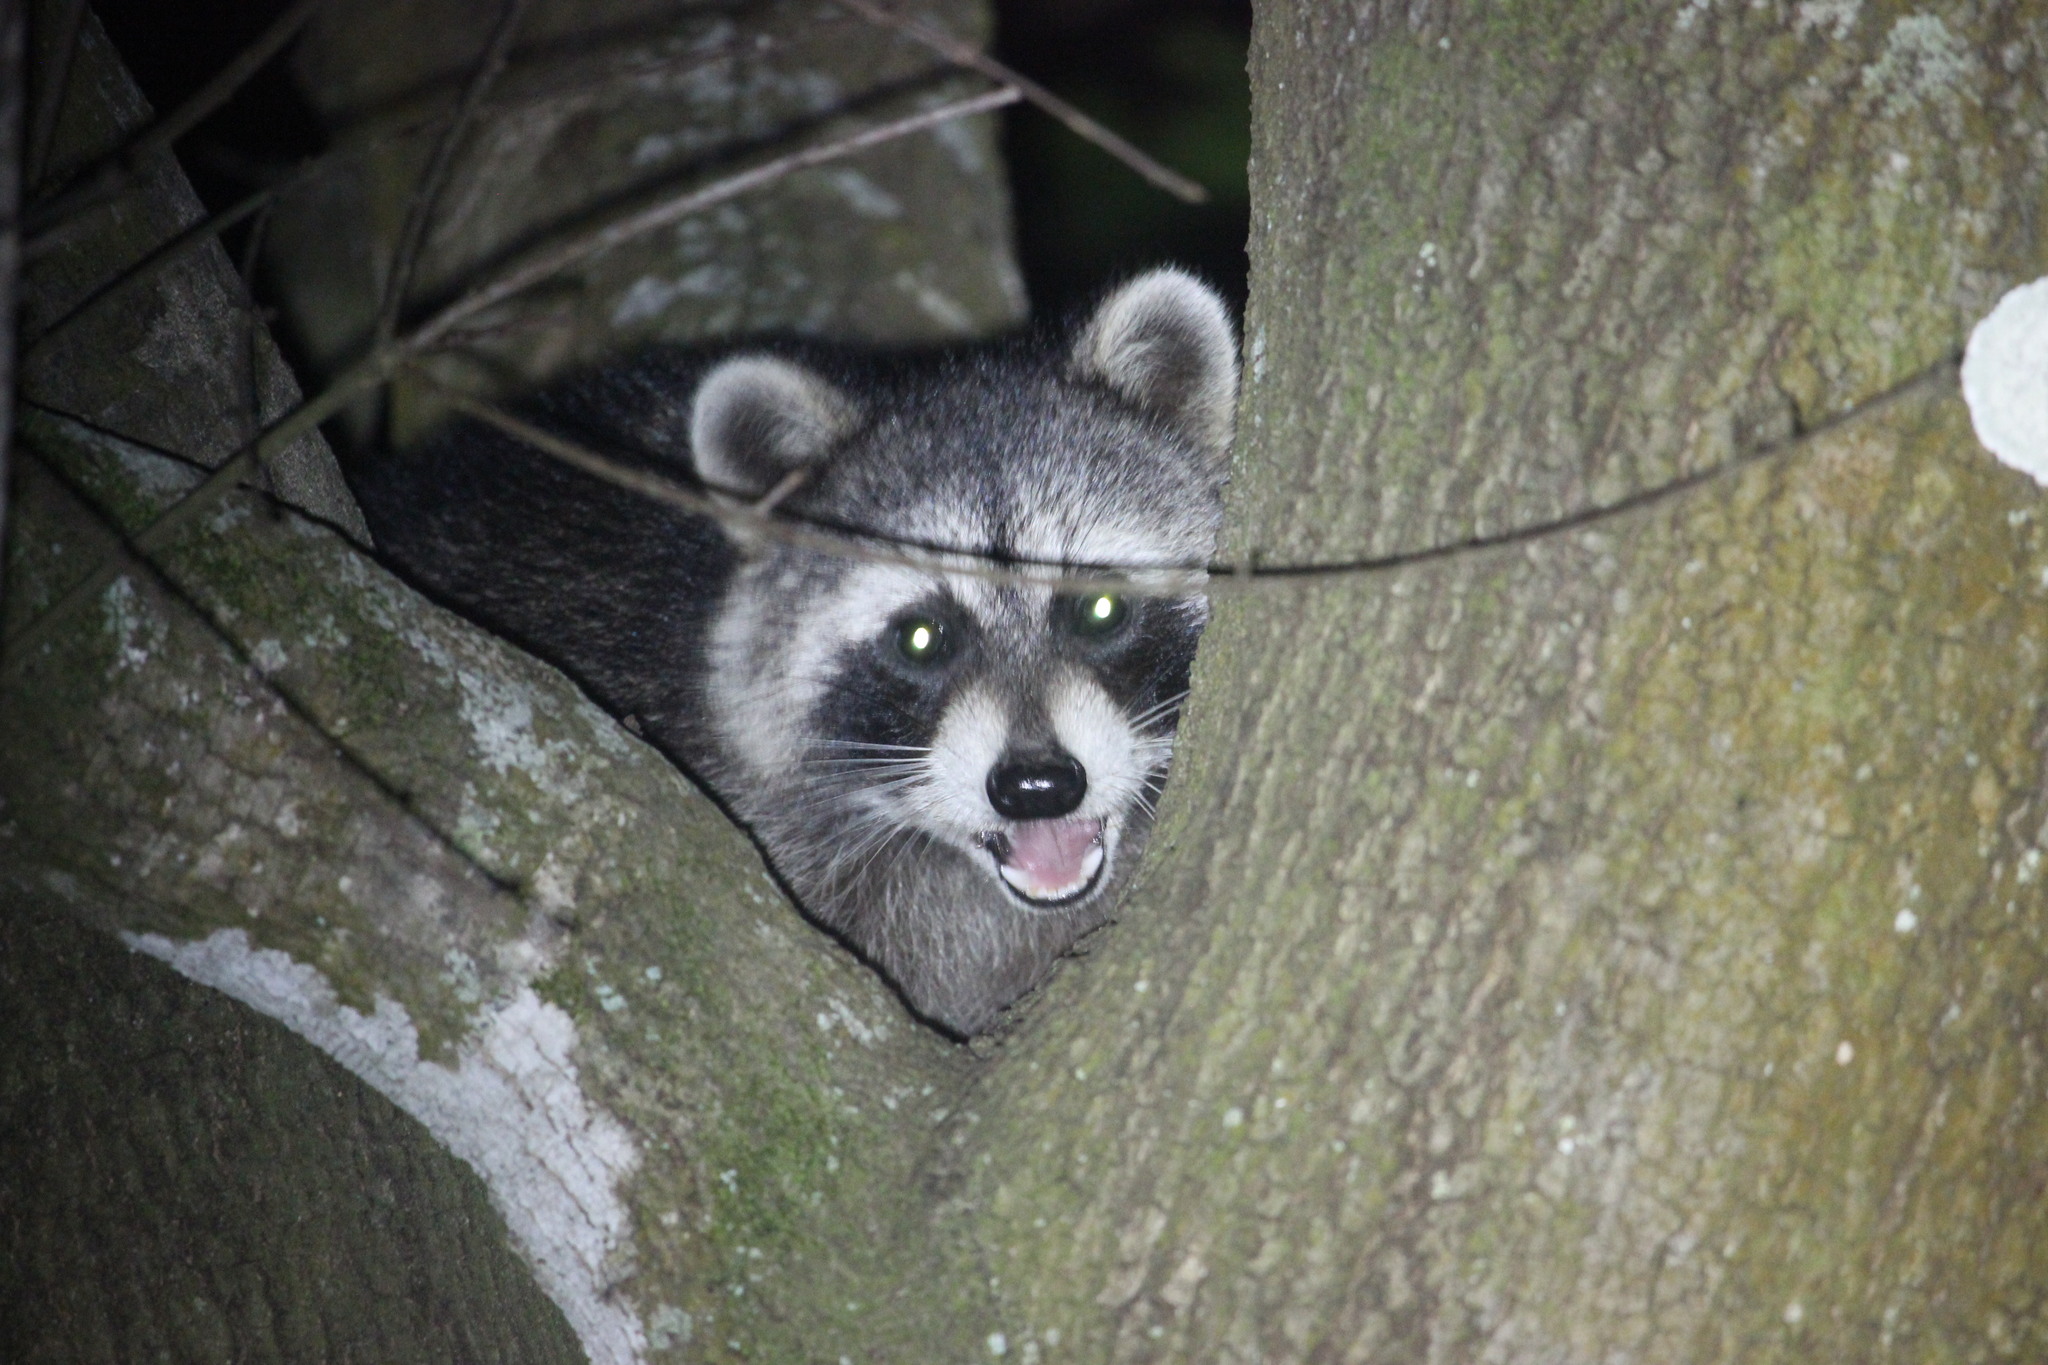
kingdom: Animalia
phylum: Chordata
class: Mammalia
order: Carnivora
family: Procyonidae
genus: Procyon
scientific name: Procyon lotor
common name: Raccoon
